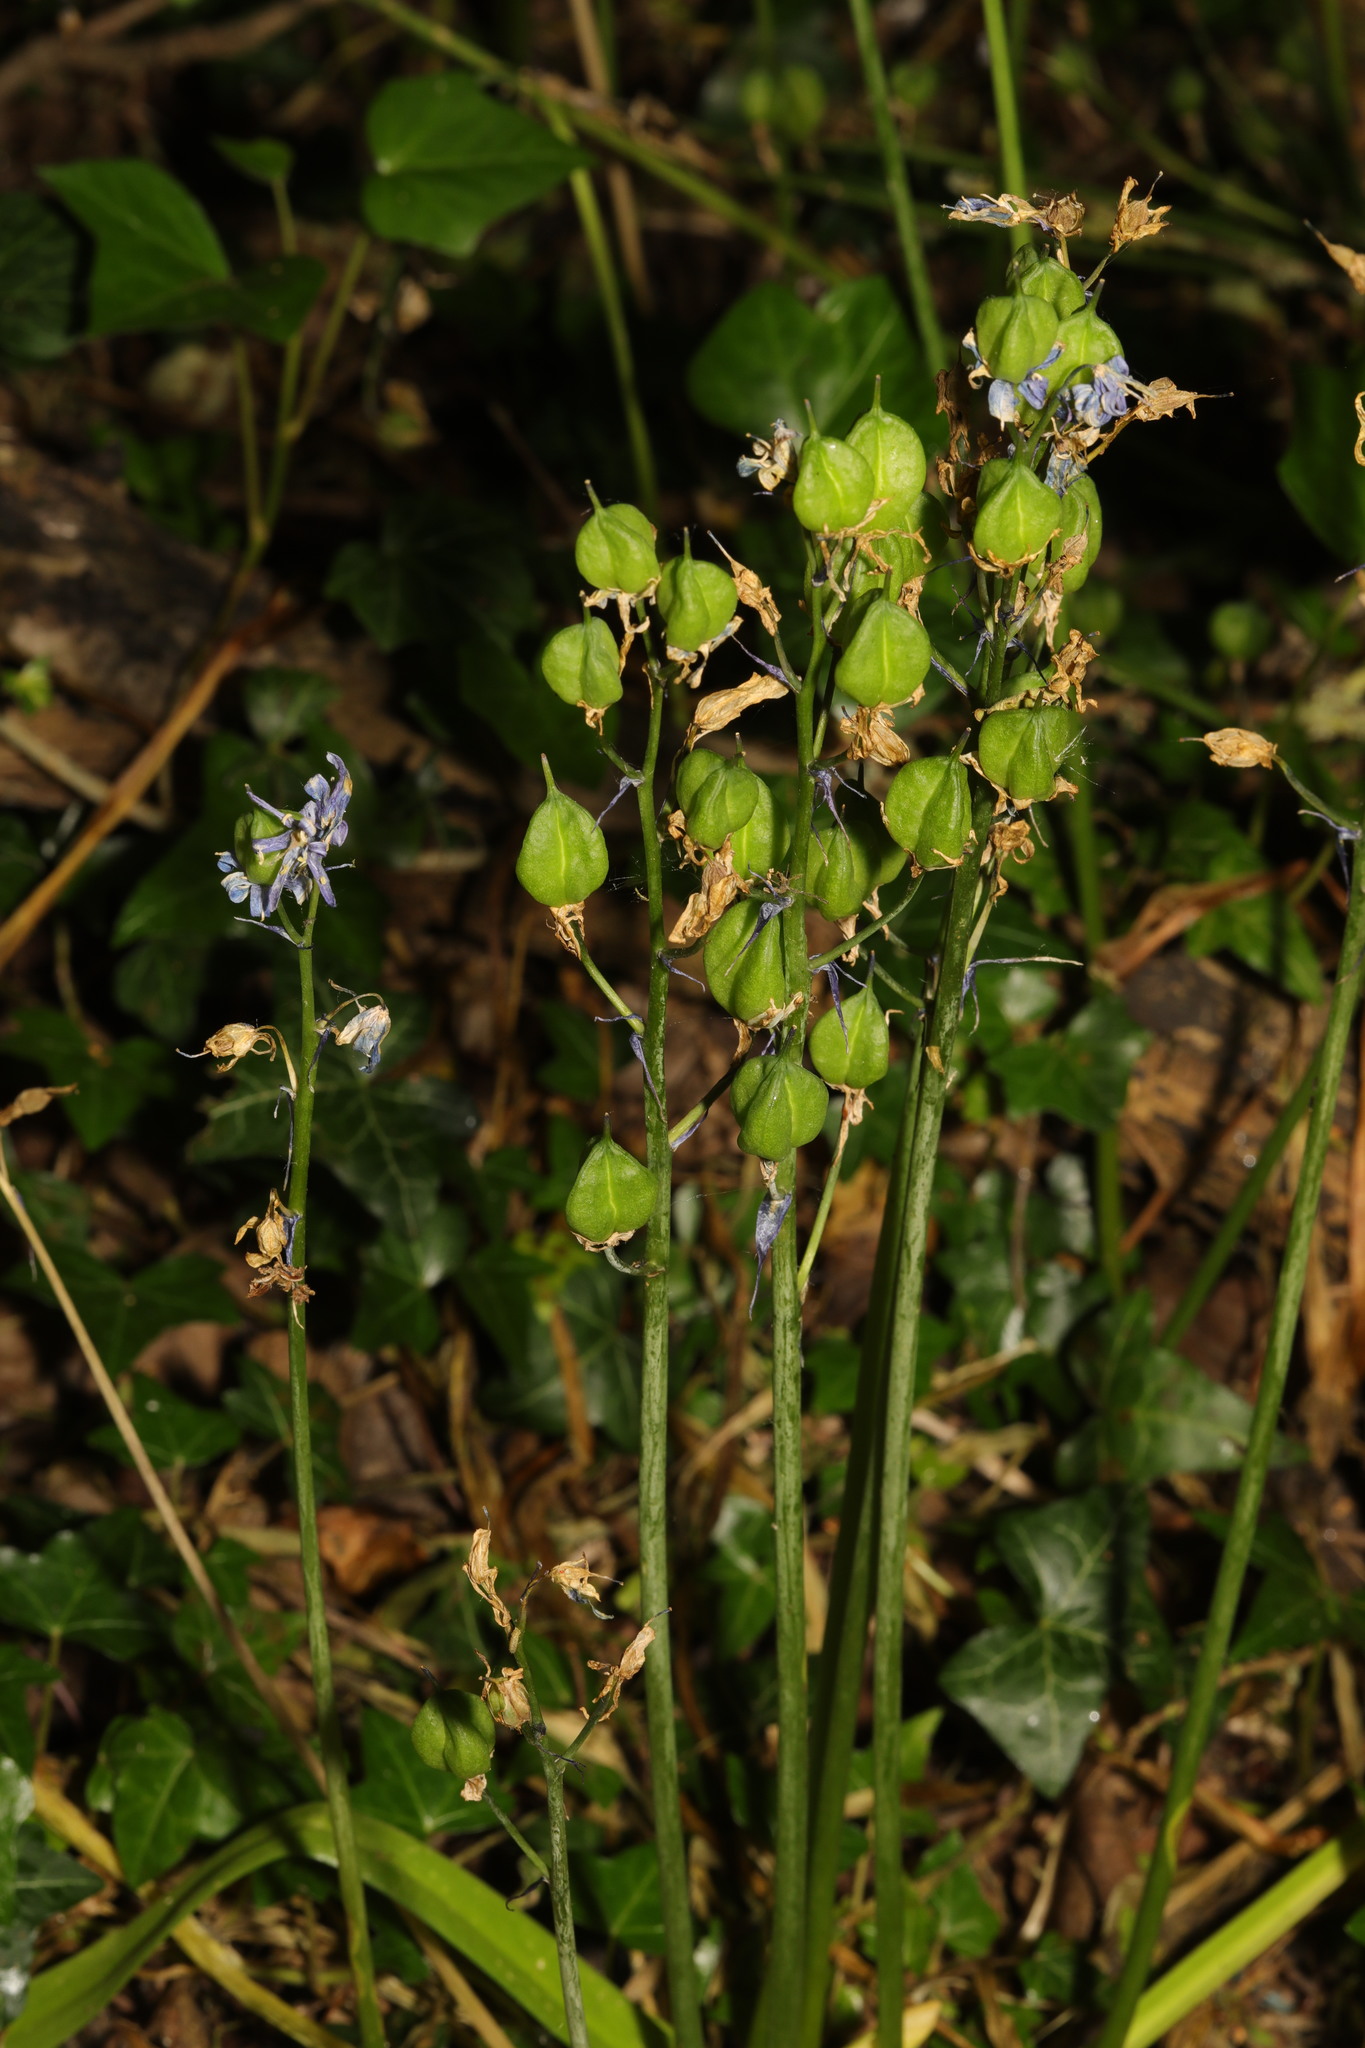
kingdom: Plantae
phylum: Tracheophyta
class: Liliopsida
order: Asparagales
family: Asparagaceae
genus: Hyacinthoides
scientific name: Hyacinthoides non-scripta
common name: Bluebell
